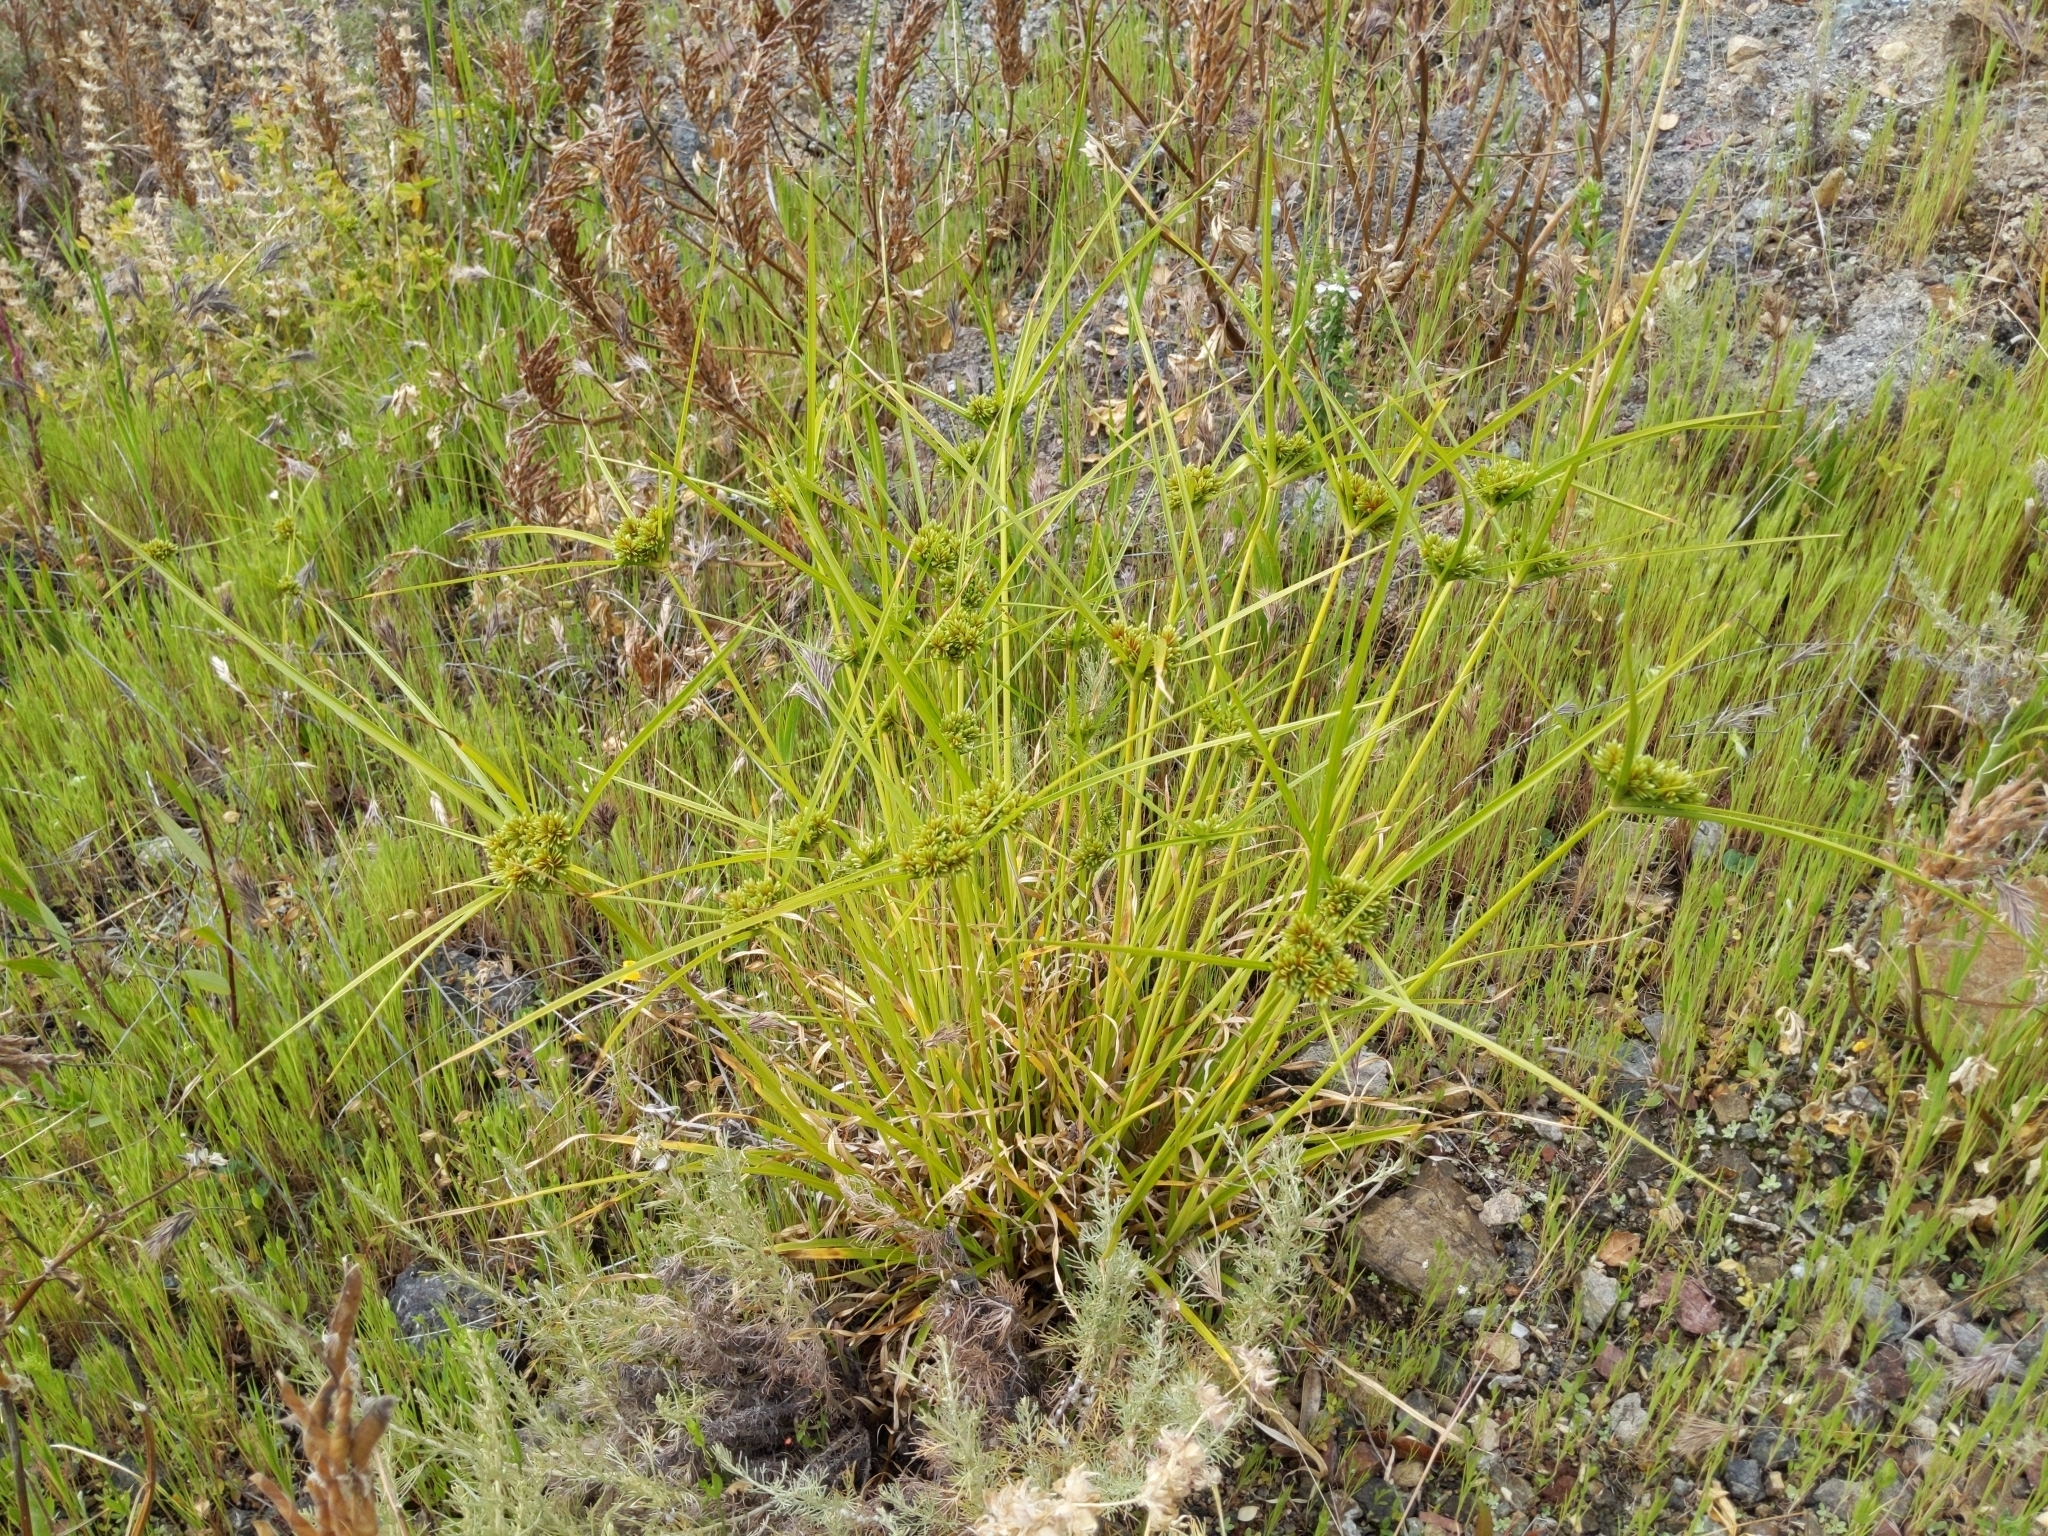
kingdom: Plantae
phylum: Tracheophyta
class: Liliopsida
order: Poales
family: Cyperaceae
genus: Cyperus
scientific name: Cyperus eragrostis
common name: Tall flatsedge
